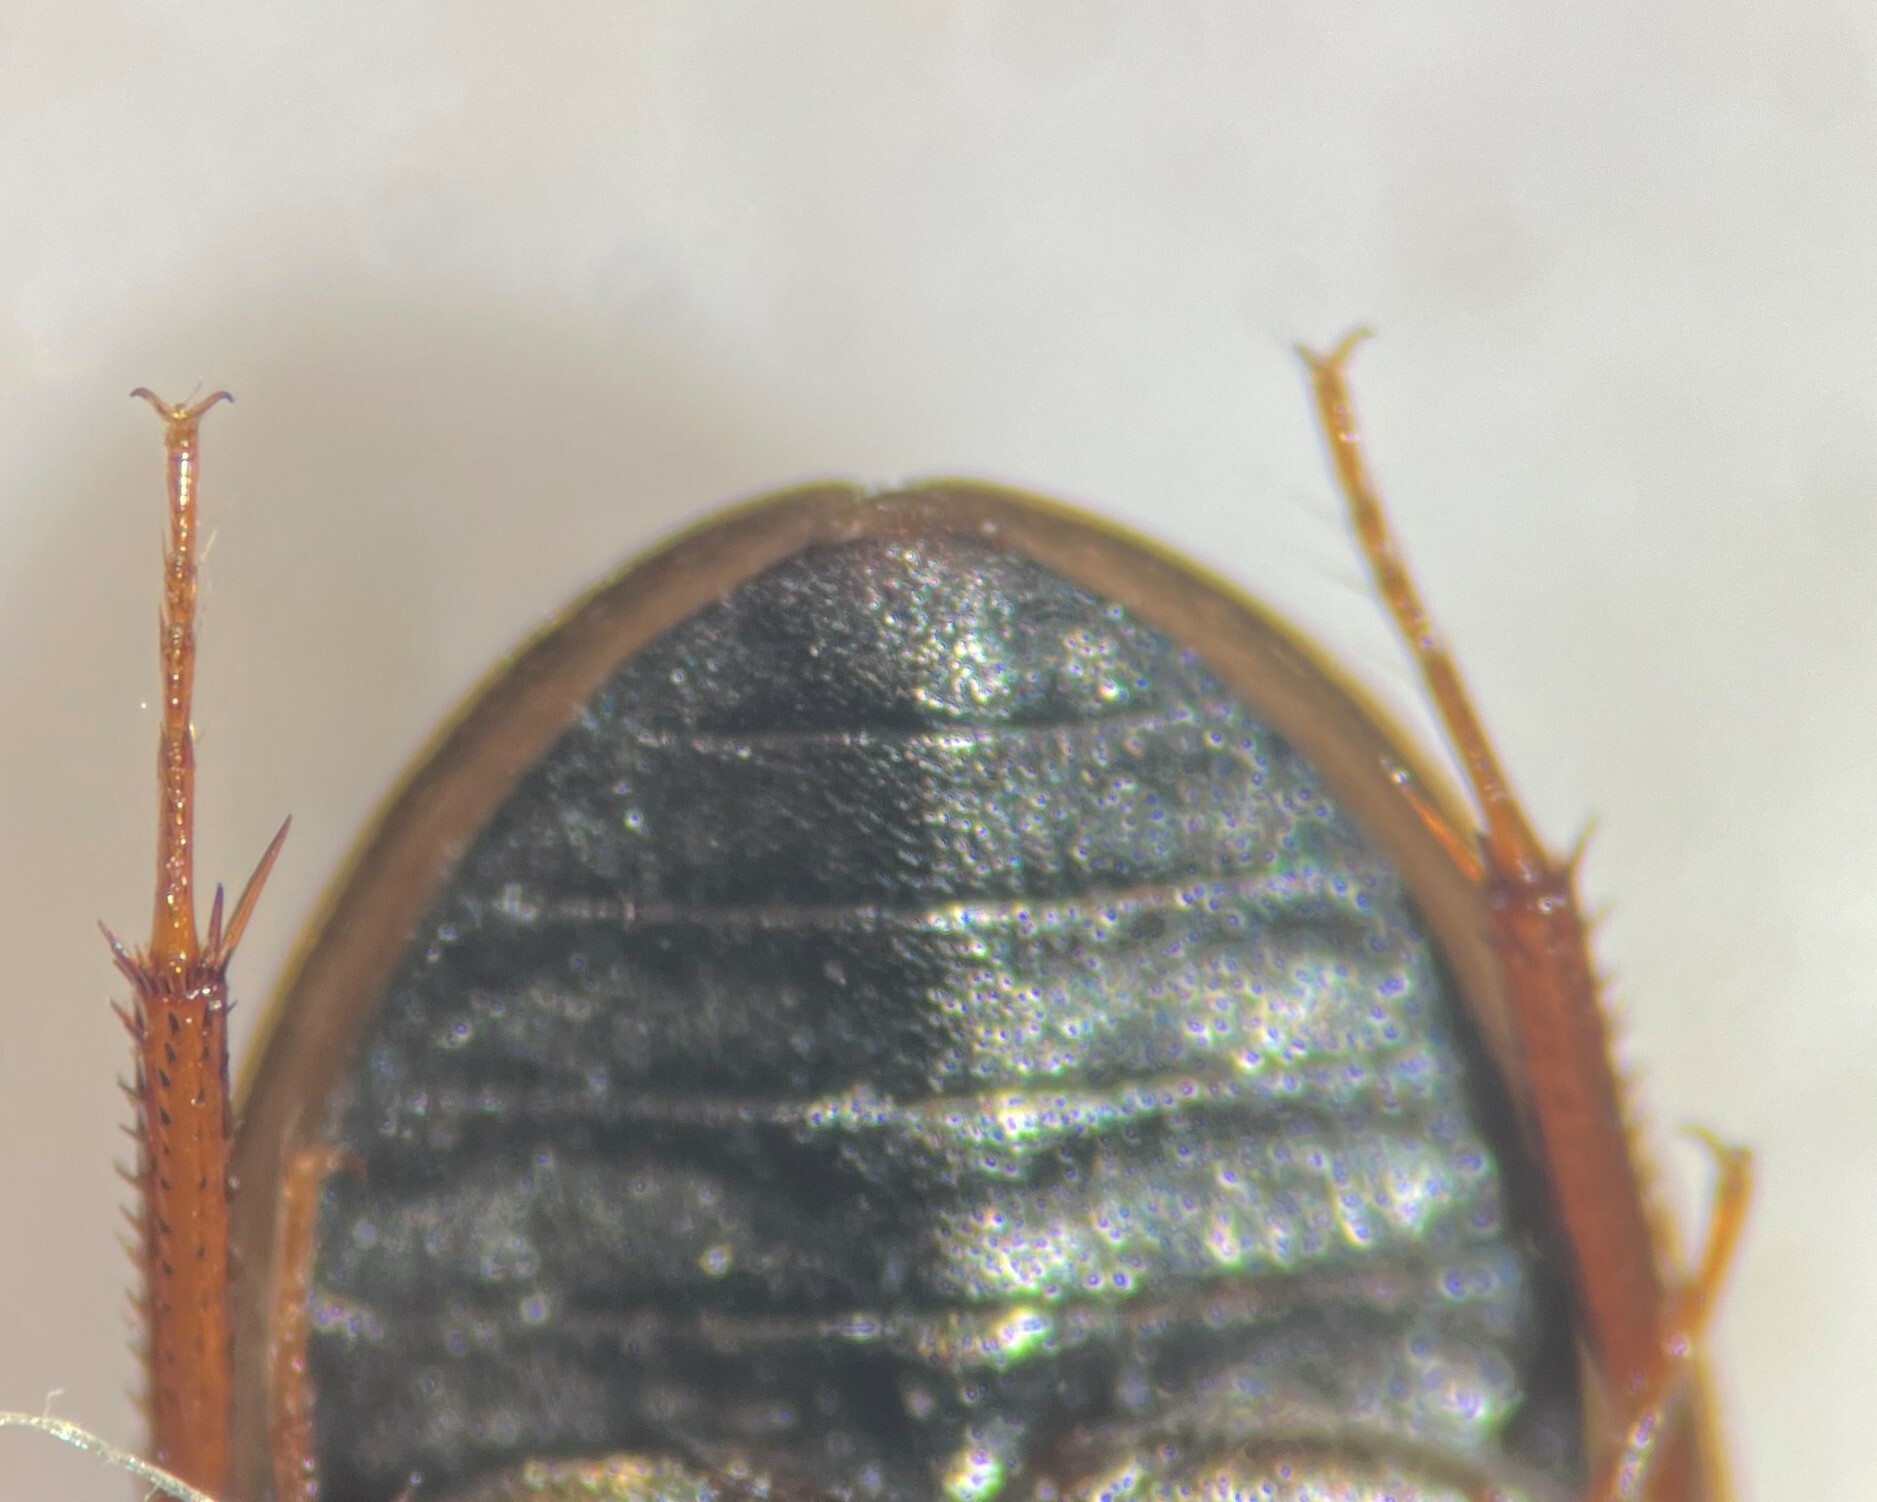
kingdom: Animalia
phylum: Arthropoda
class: Insecta
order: Coleoptera
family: Hydrophilidae
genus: Cymbiodyta
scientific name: Cymbiodyta blanchardi
